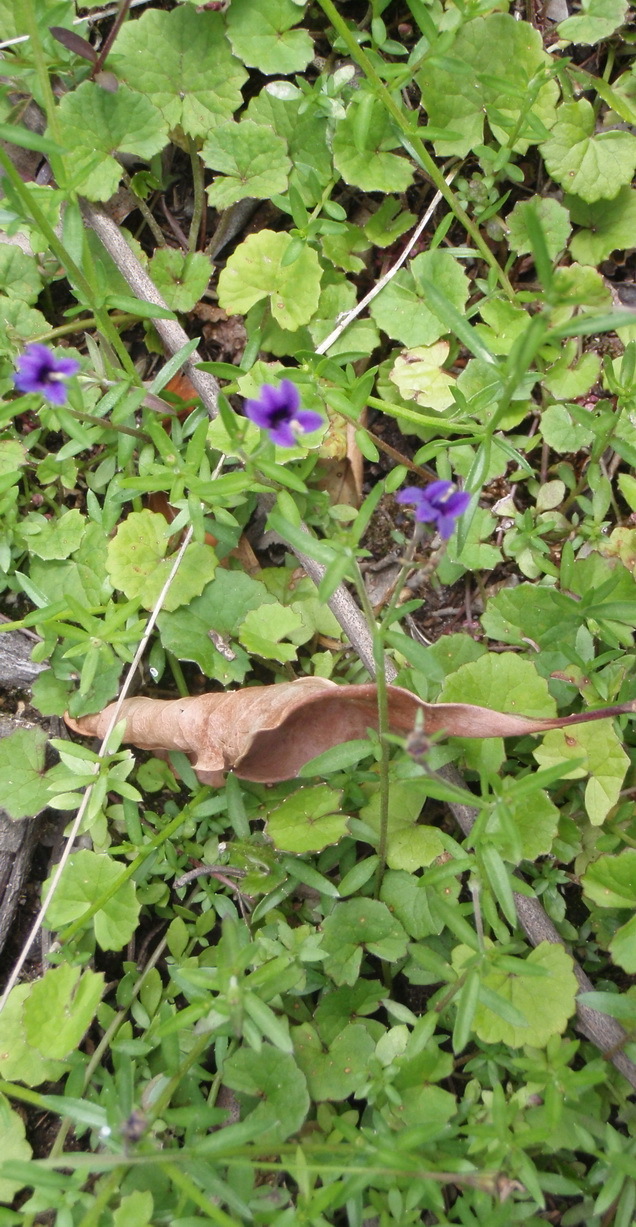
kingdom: Plantae
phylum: Tracheophyta
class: Magnoliopsida
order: Asterales
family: Campanulaceae
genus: Monopsis
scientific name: Monopsis simplex
